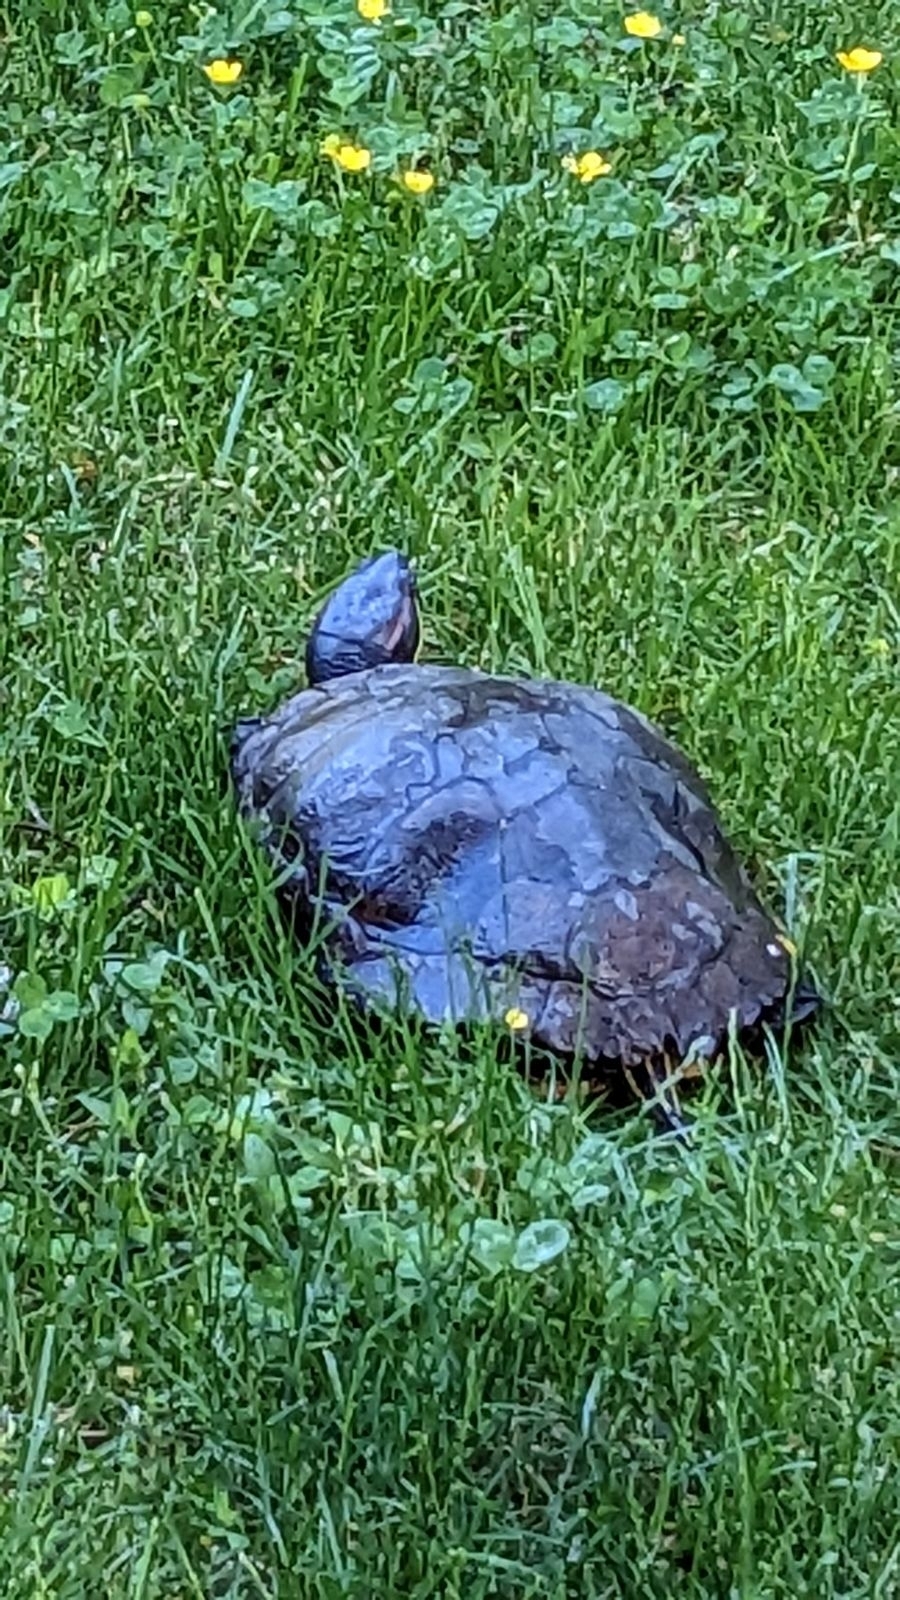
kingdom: Animalia
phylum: Chordata
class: Testudines
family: Emydidae
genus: Trachemys
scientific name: Trachemys scripta
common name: Slider
